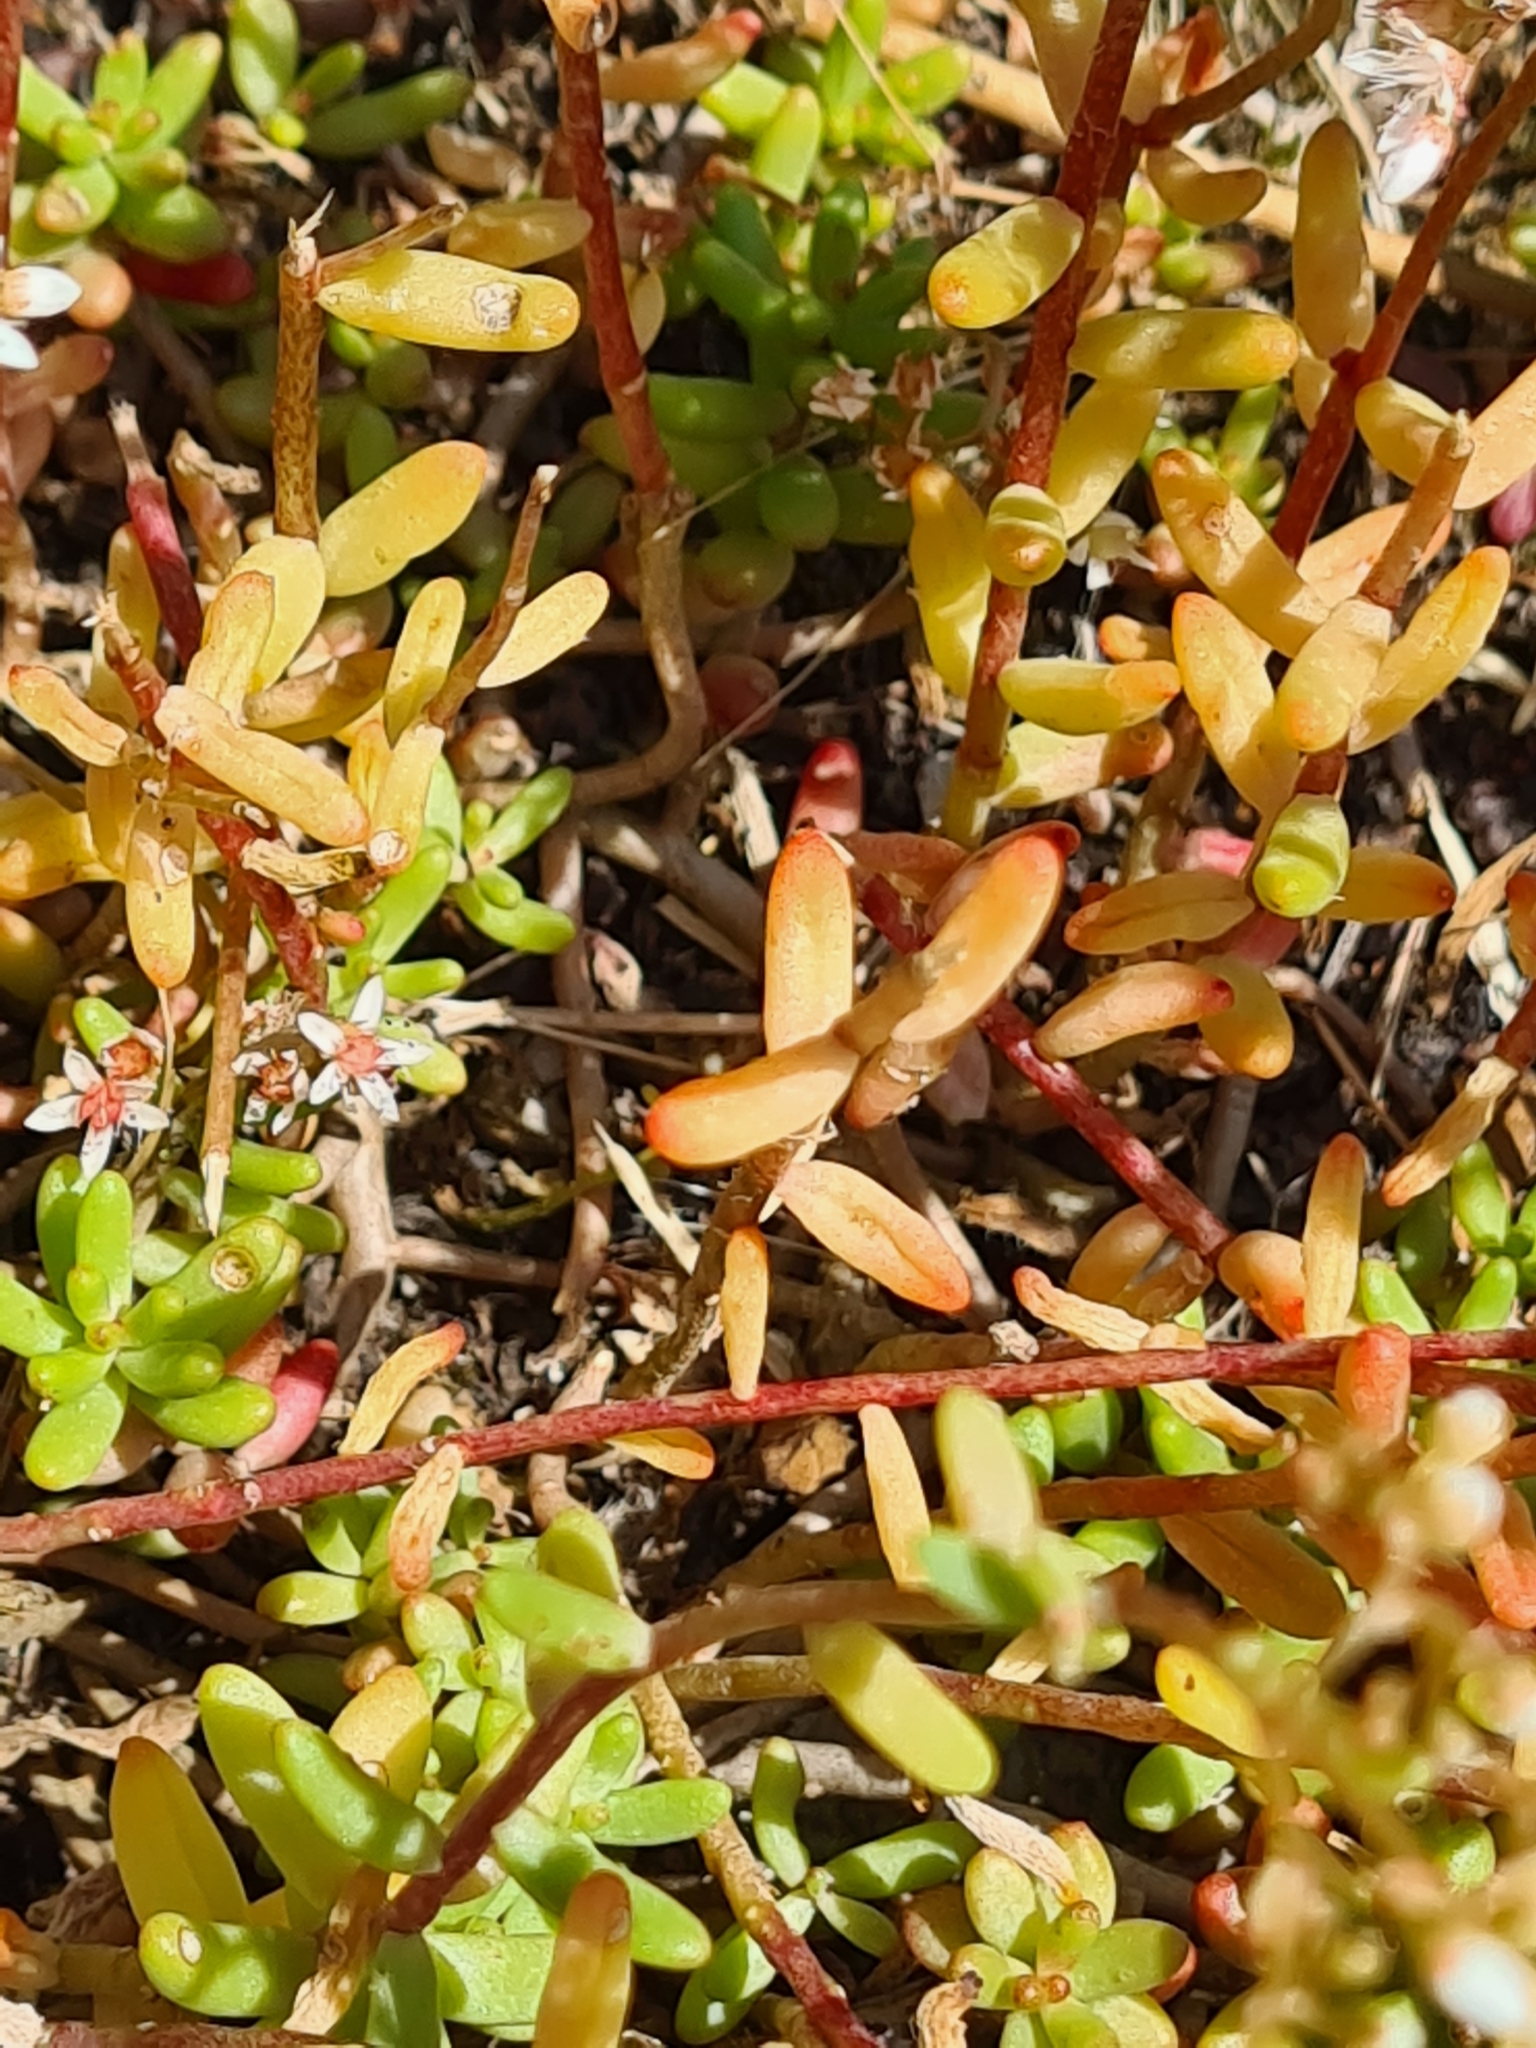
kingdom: Plantae
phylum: Tracheophyta
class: Magnoliopsida
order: Saxifragales
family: Crassulaceae
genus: Sedum
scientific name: Sedum album
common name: White stonecrop
